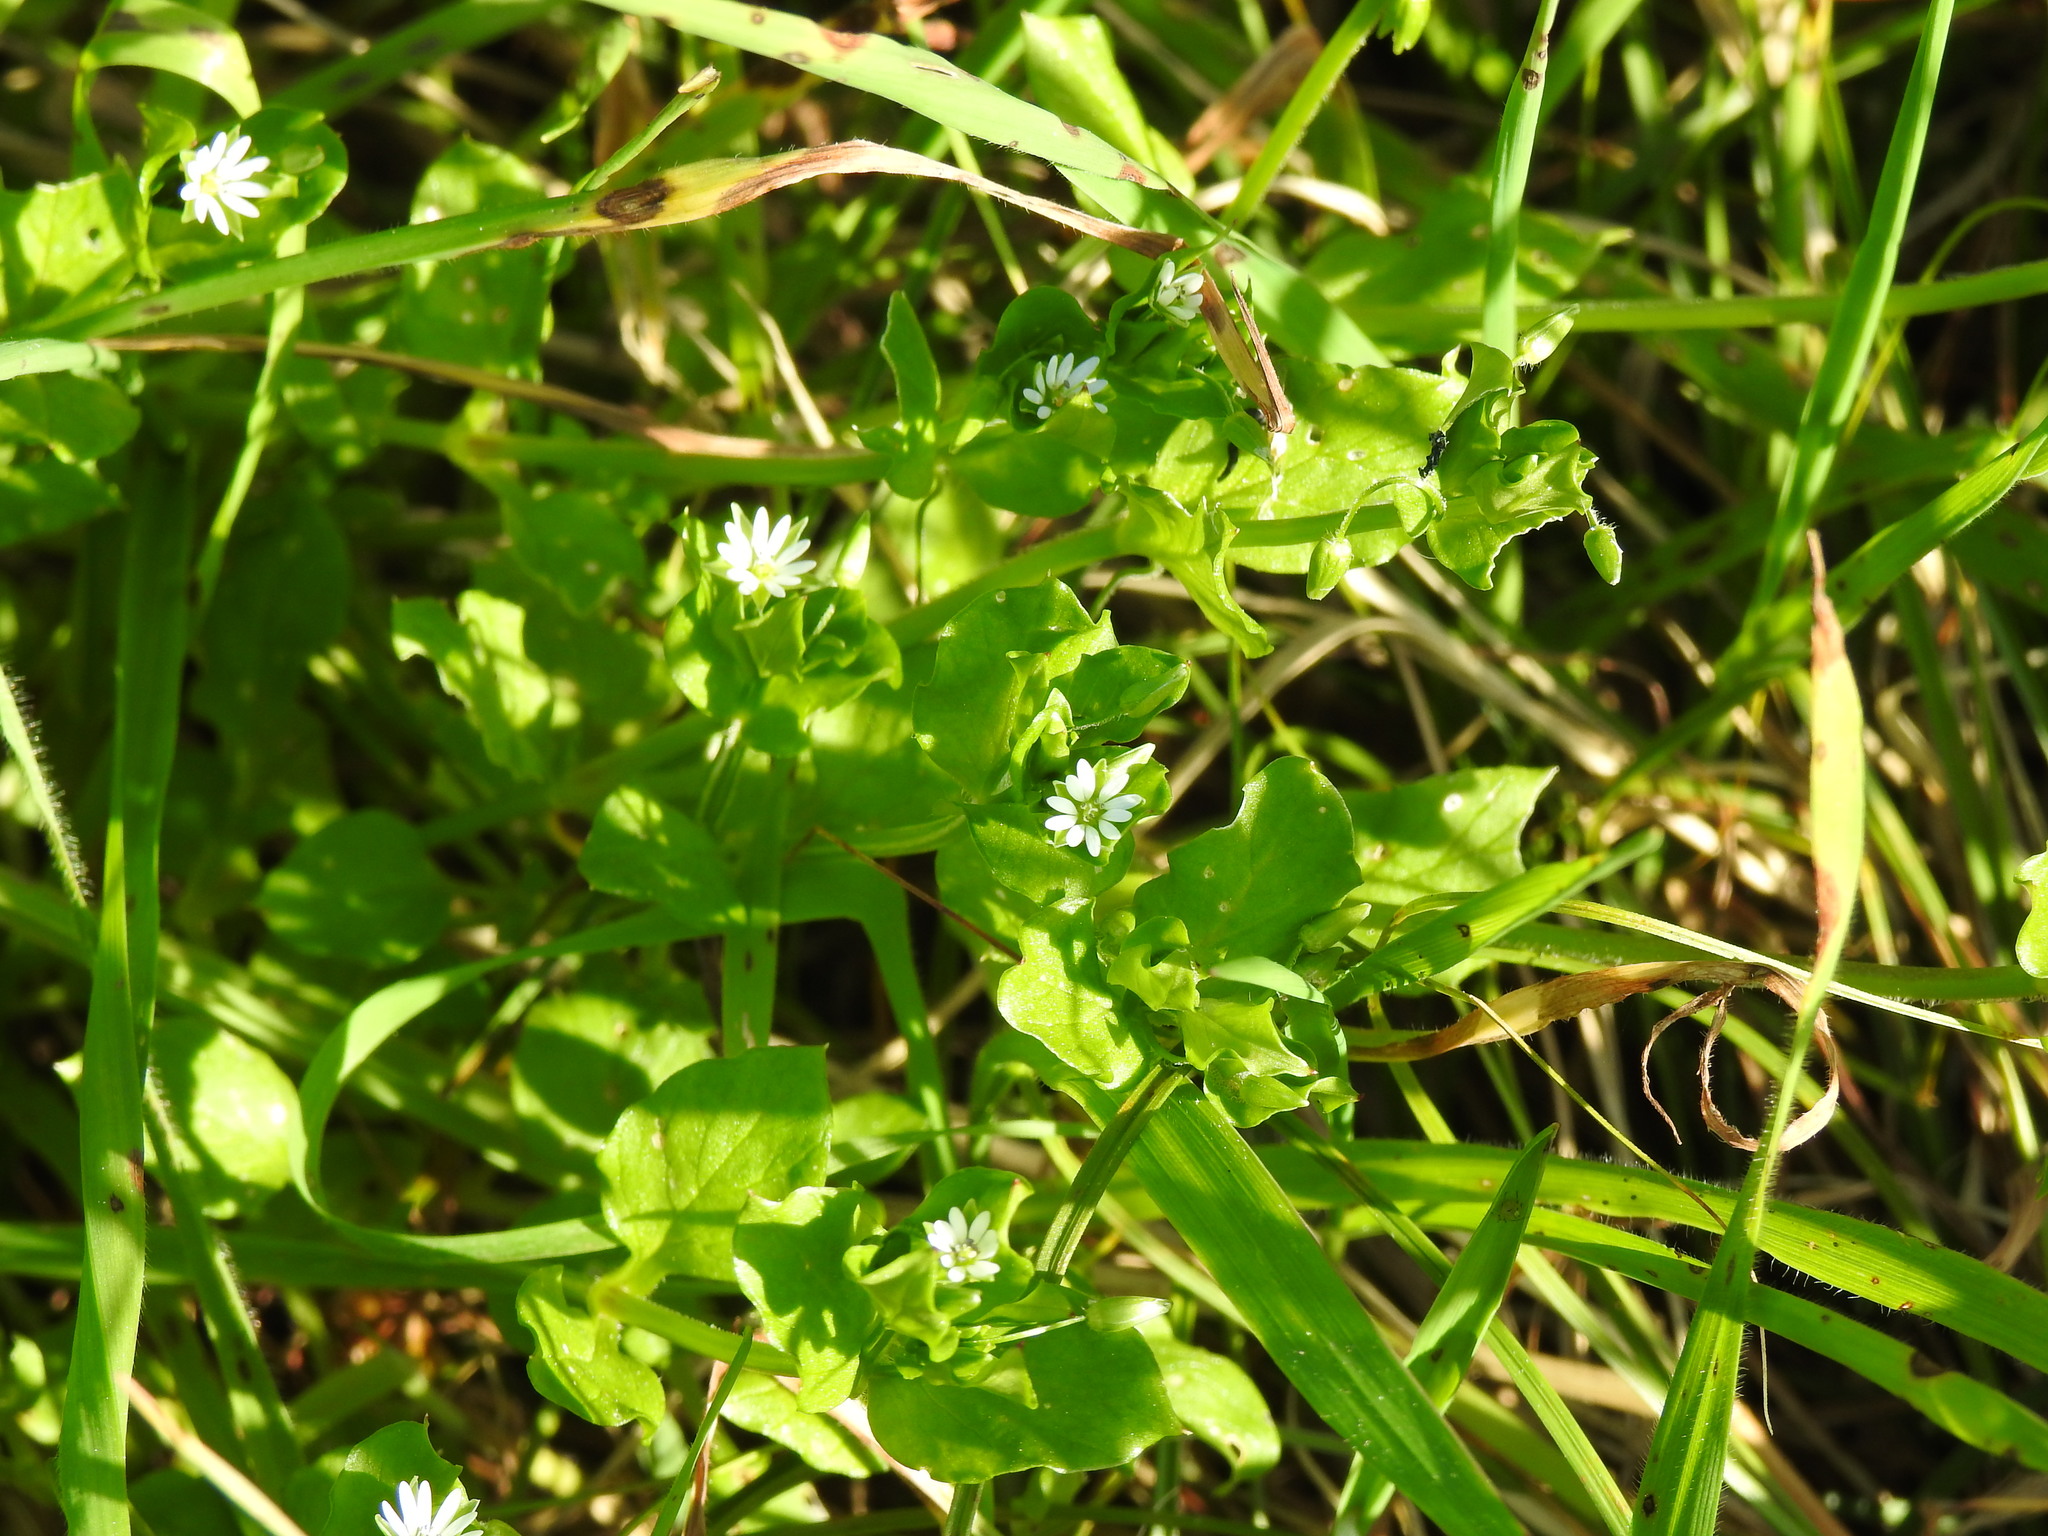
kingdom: Plantae
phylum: Tracheophyta
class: Magnoliopsida
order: Caryophyllales
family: Caryophyllaceae
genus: Stellaria
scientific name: Stellaria media
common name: Common chickweed
